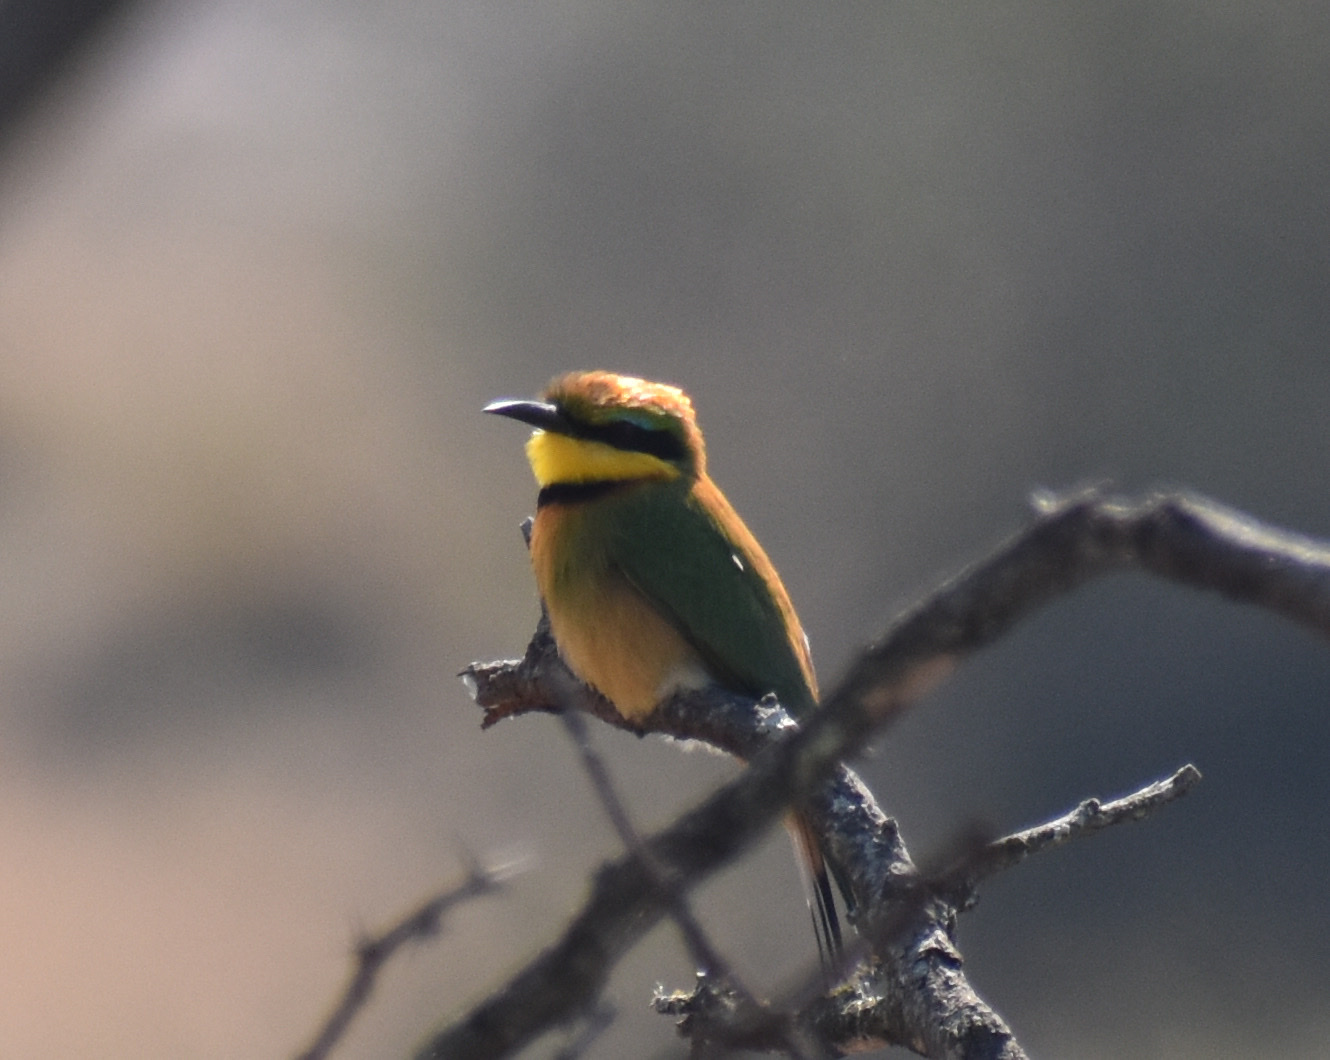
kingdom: Animalia
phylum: Chordata
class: Aves
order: Coraciiformes
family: Meropidae
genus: Merops
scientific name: Merops pusillus
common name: Little bee-eater
